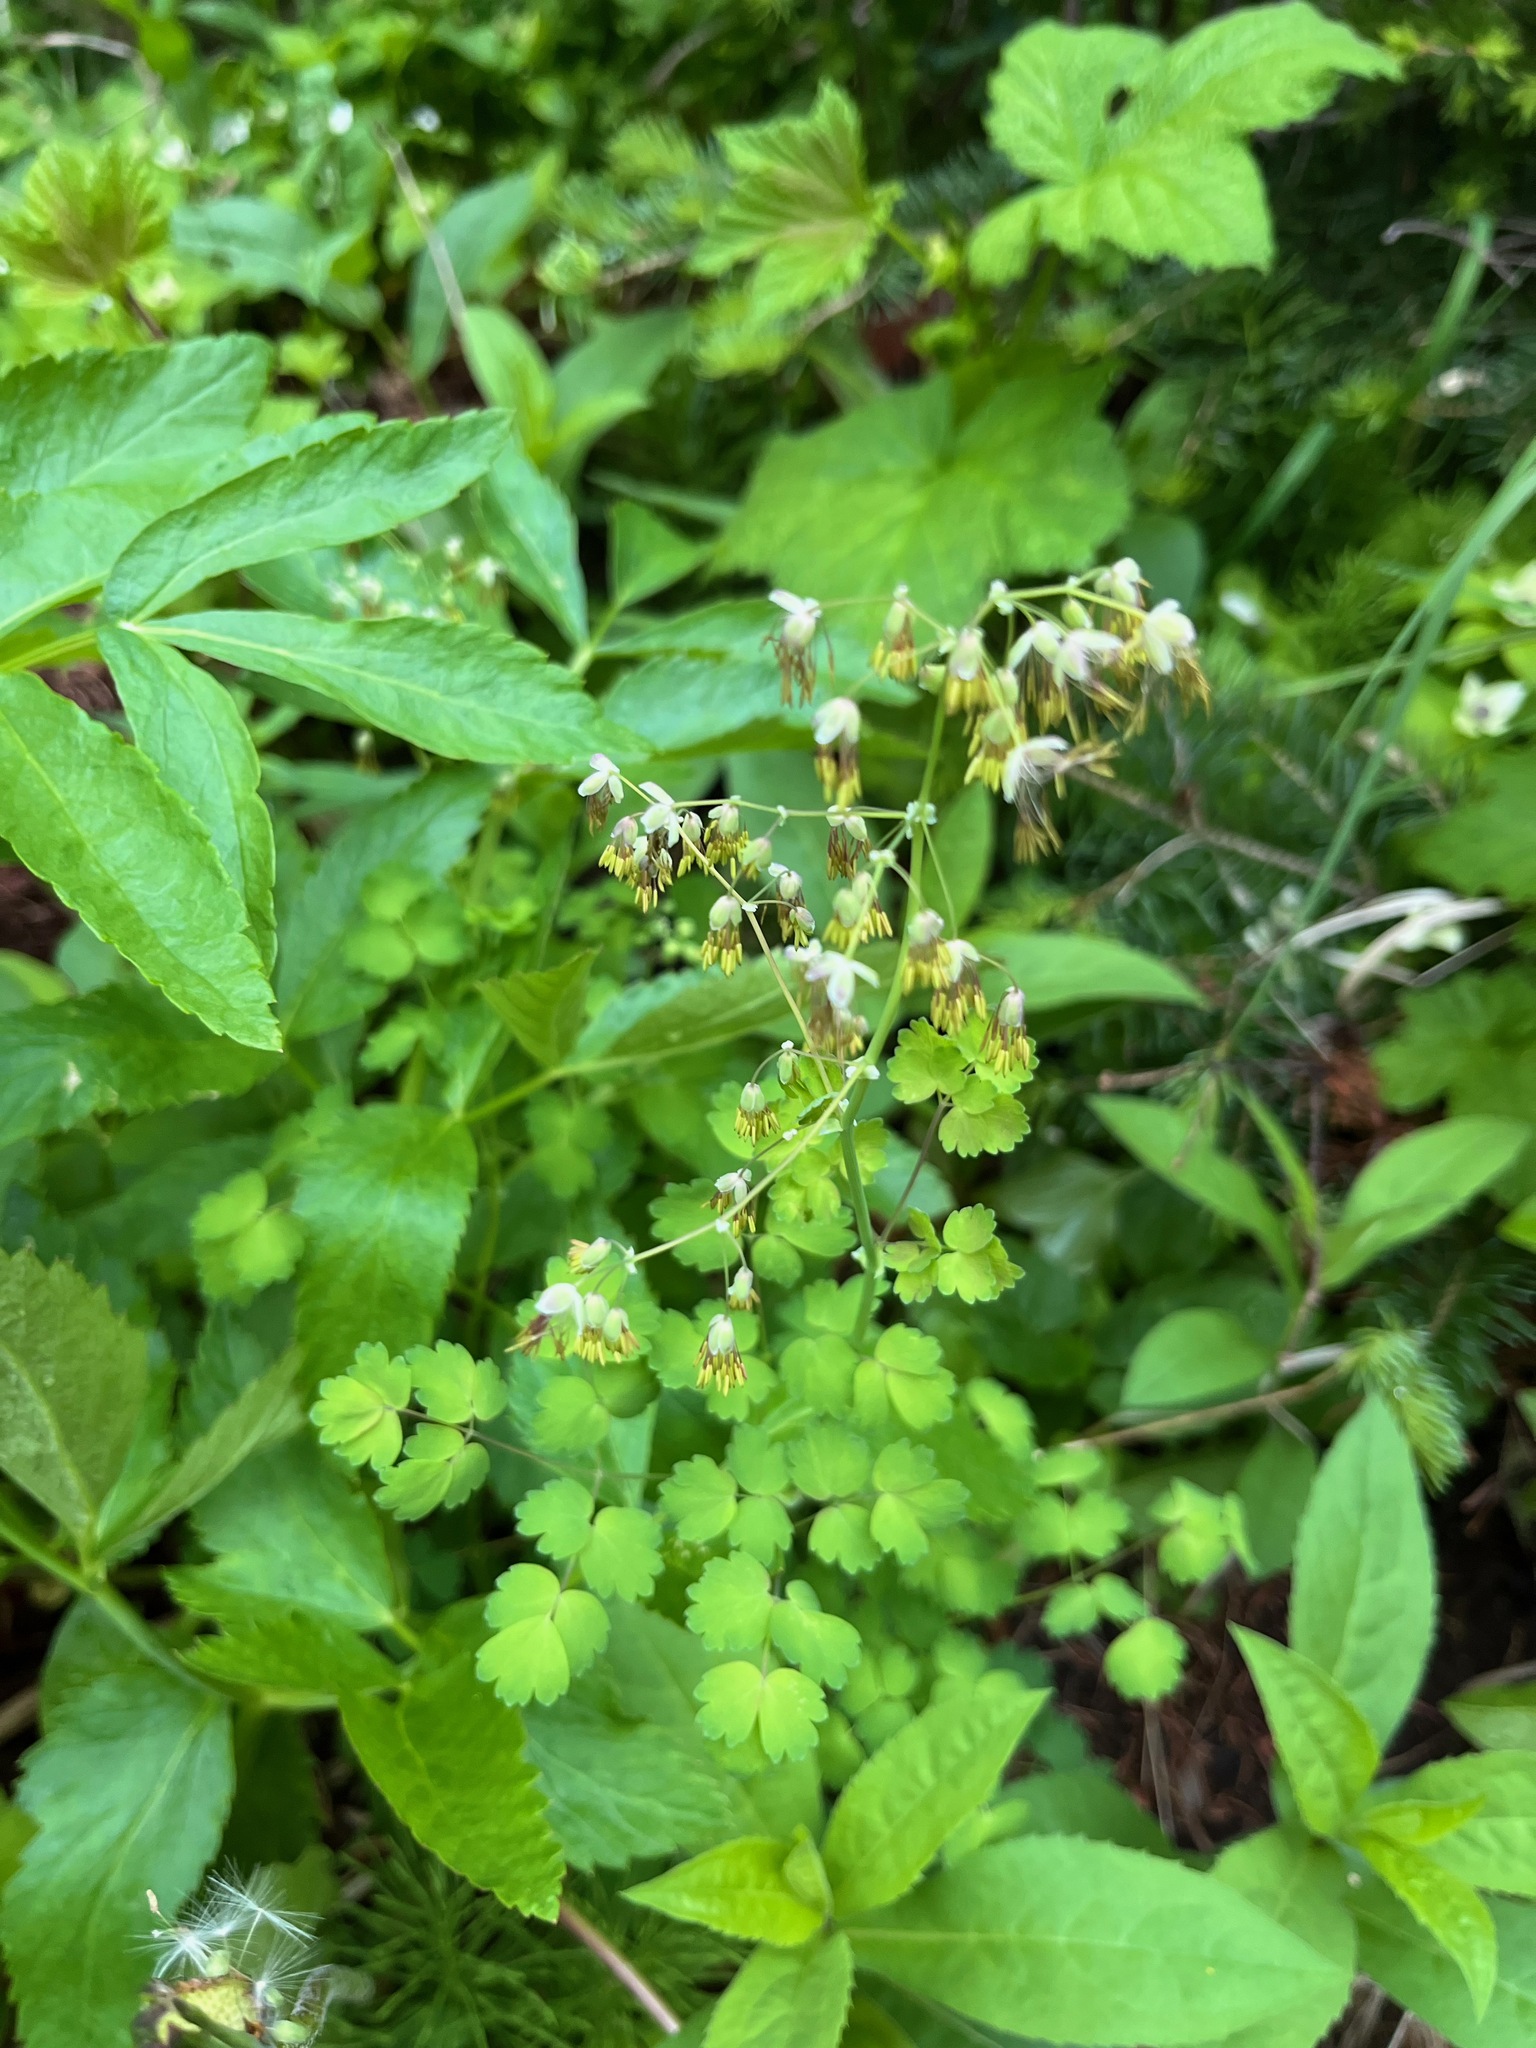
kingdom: Plantae
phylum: Tracheophyta
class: Magnoliopsida
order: Ranunculales
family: Ranunculaceae
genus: Thalictrum
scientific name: Thalictrum occidentale
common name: Western meadow-rue
